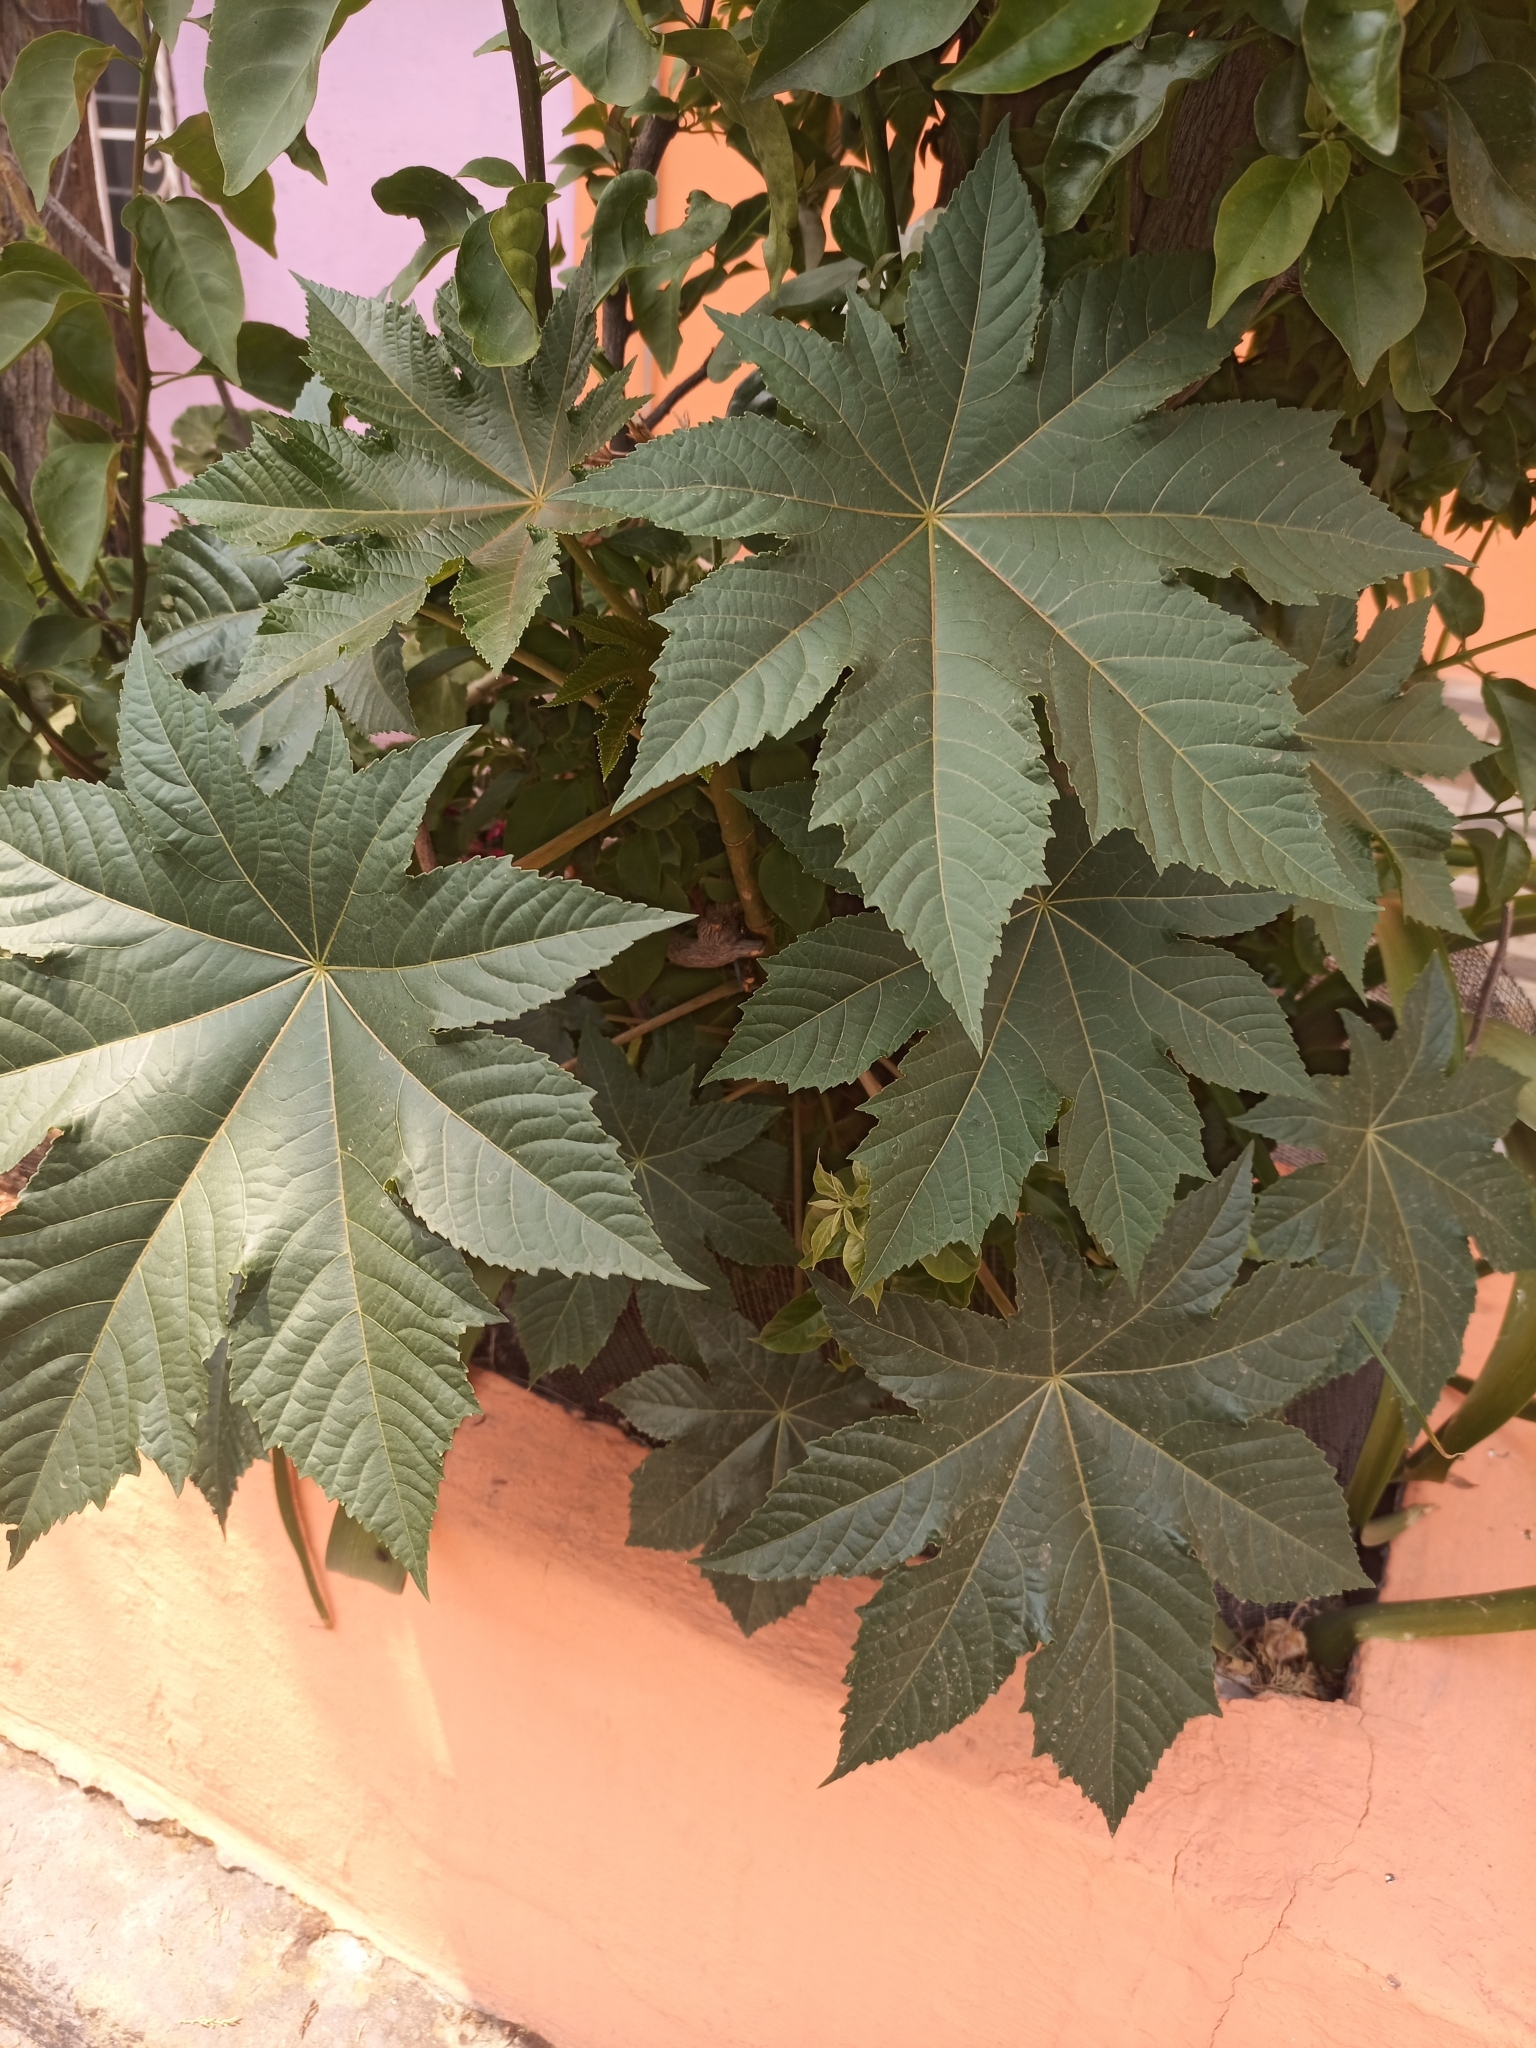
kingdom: Plantae
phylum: Tracheophyta
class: Magnoliopsida
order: Malpighiales
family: Euphorbiaceae
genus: Ricinus
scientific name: Ricinus communis
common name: Castor-oil-plant
